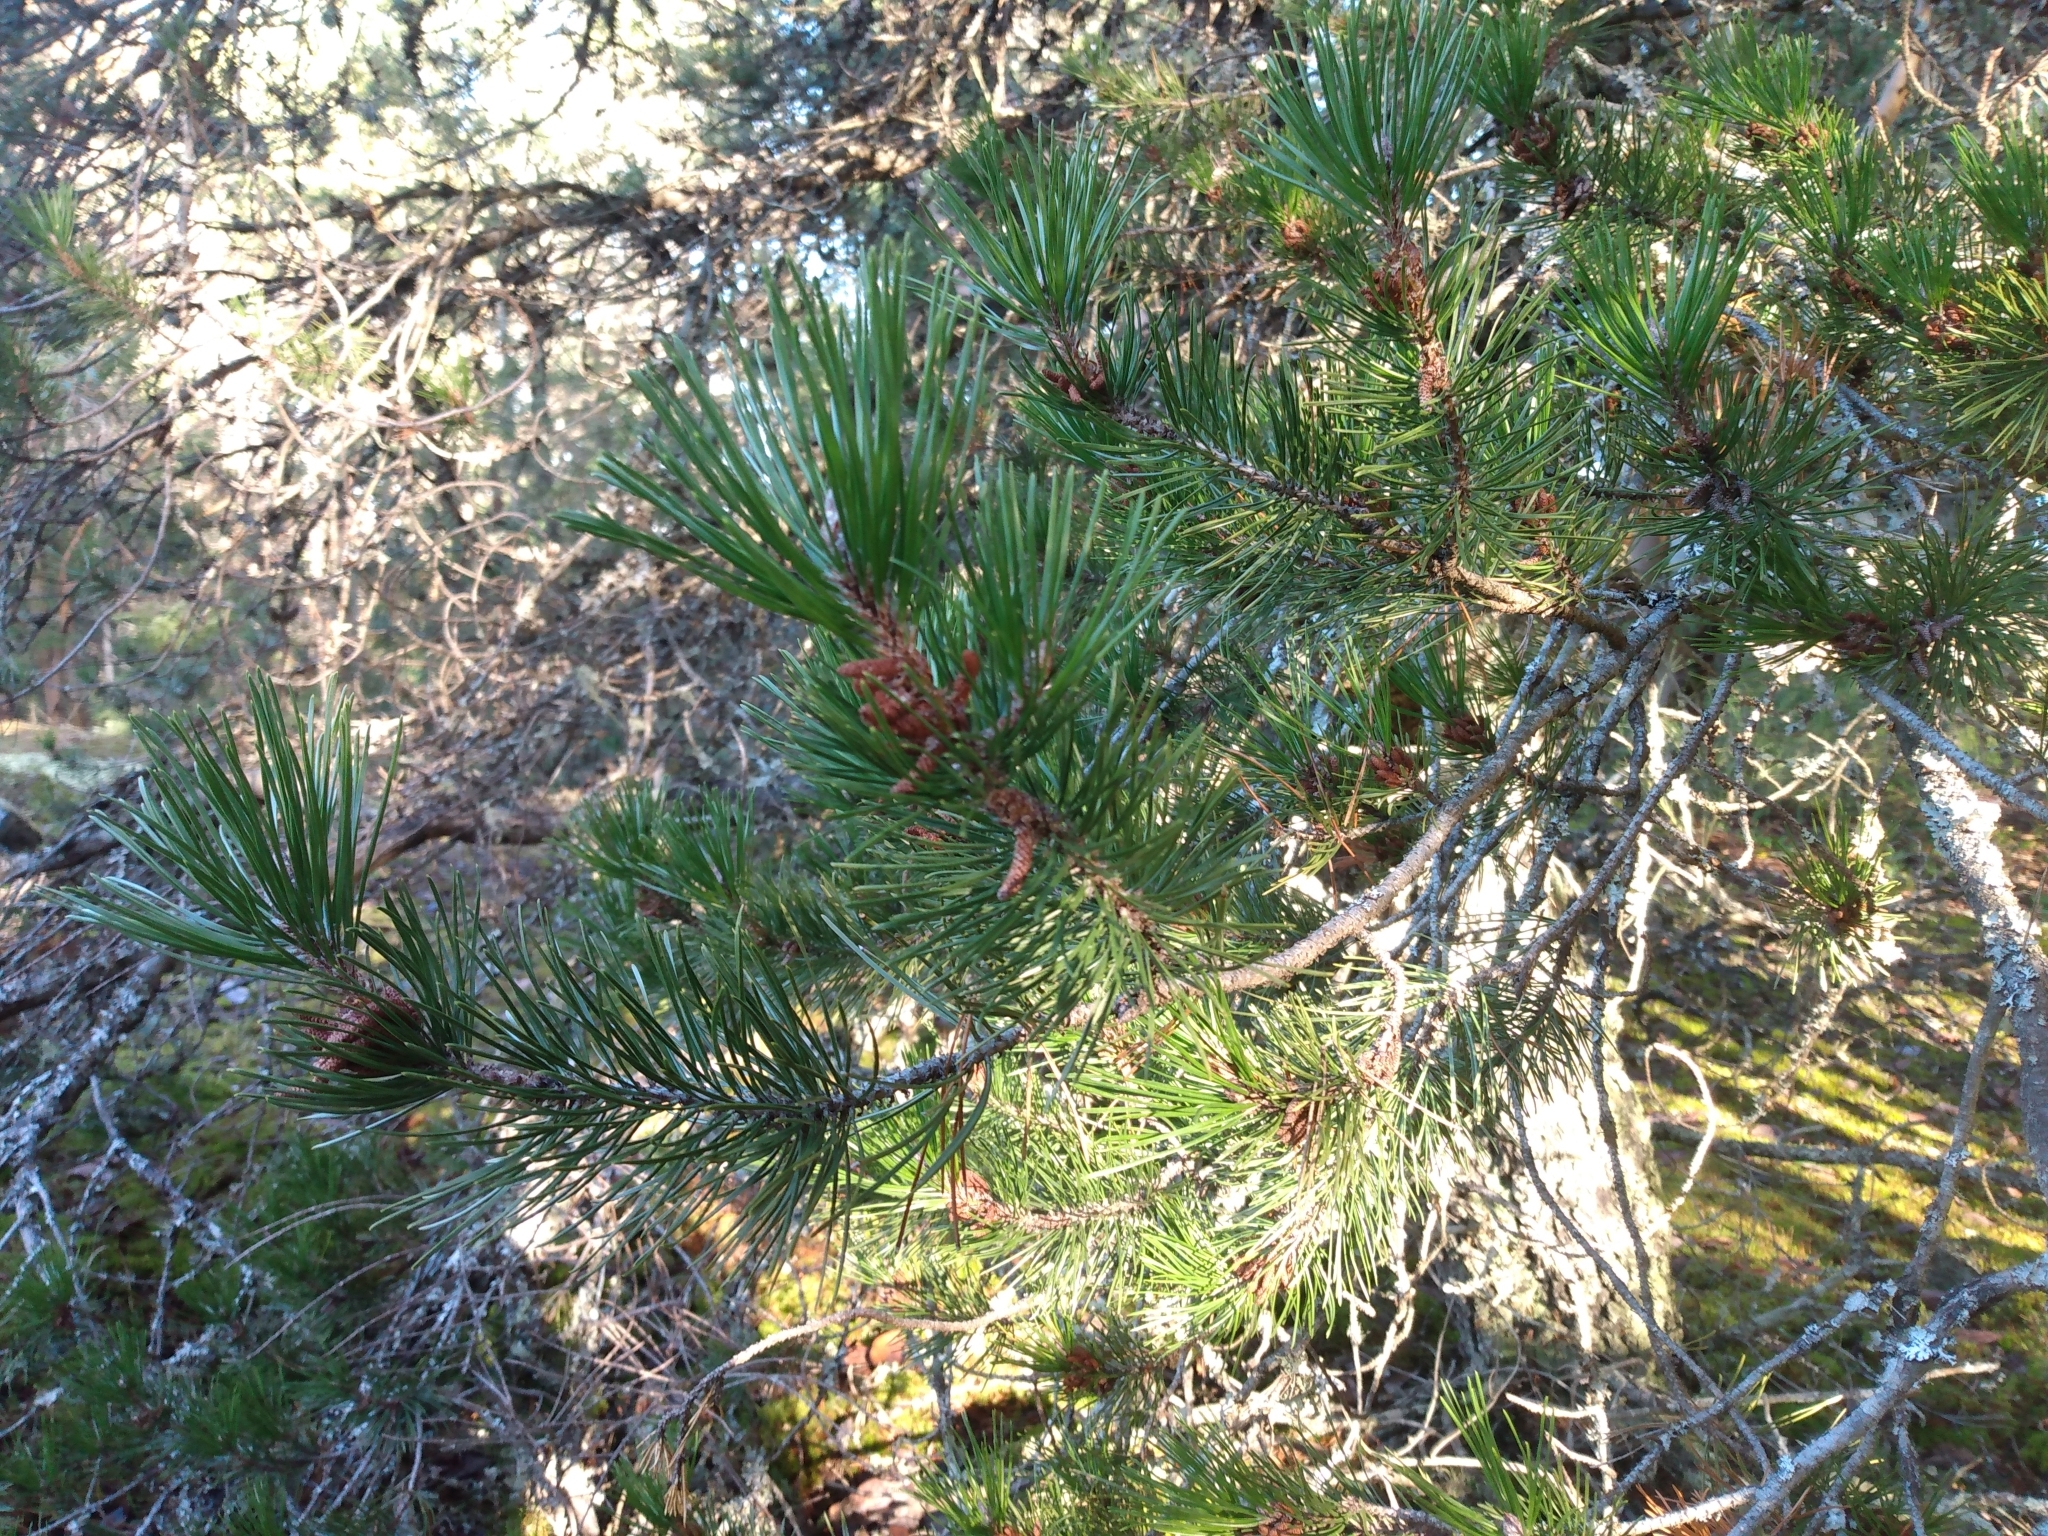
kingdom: Plantae
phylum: Tracheophyta
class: Pinopsida
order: Pinales
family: Pinaceae
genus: Pinus
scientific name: Pinus contorta
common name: Lodgepole pine
